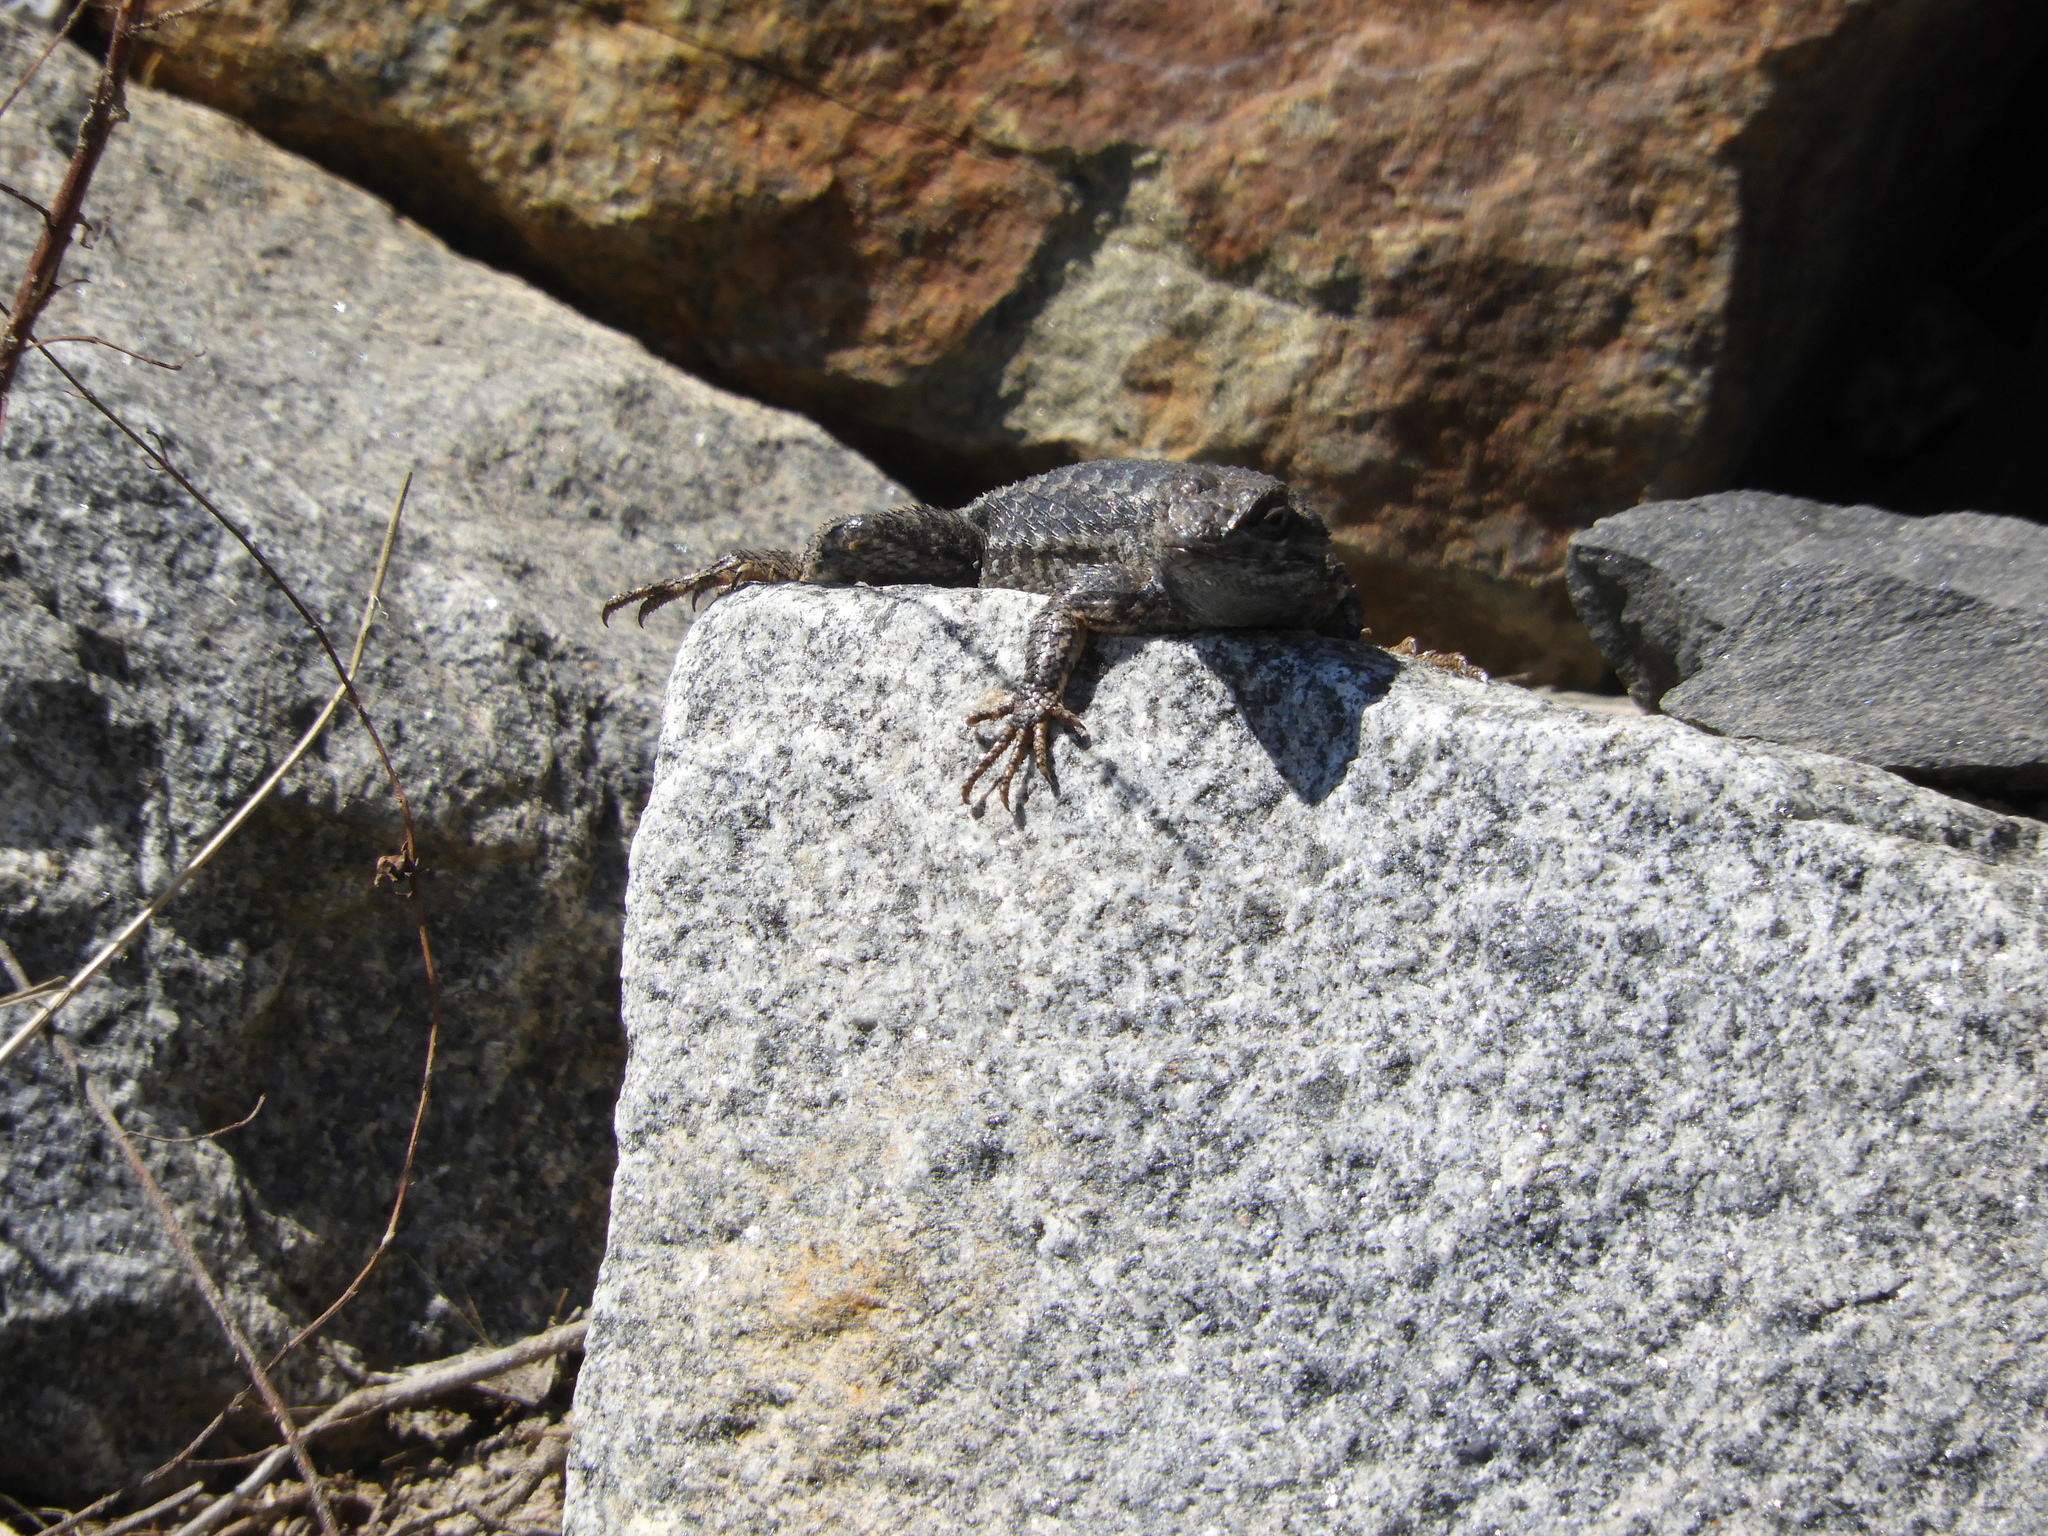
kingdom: Animalia
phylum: Chordata
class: Squamata
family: Phrynosomatidae
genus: Sceloporus
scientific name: Sceloporus occidentalis
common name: Western fence lizard
